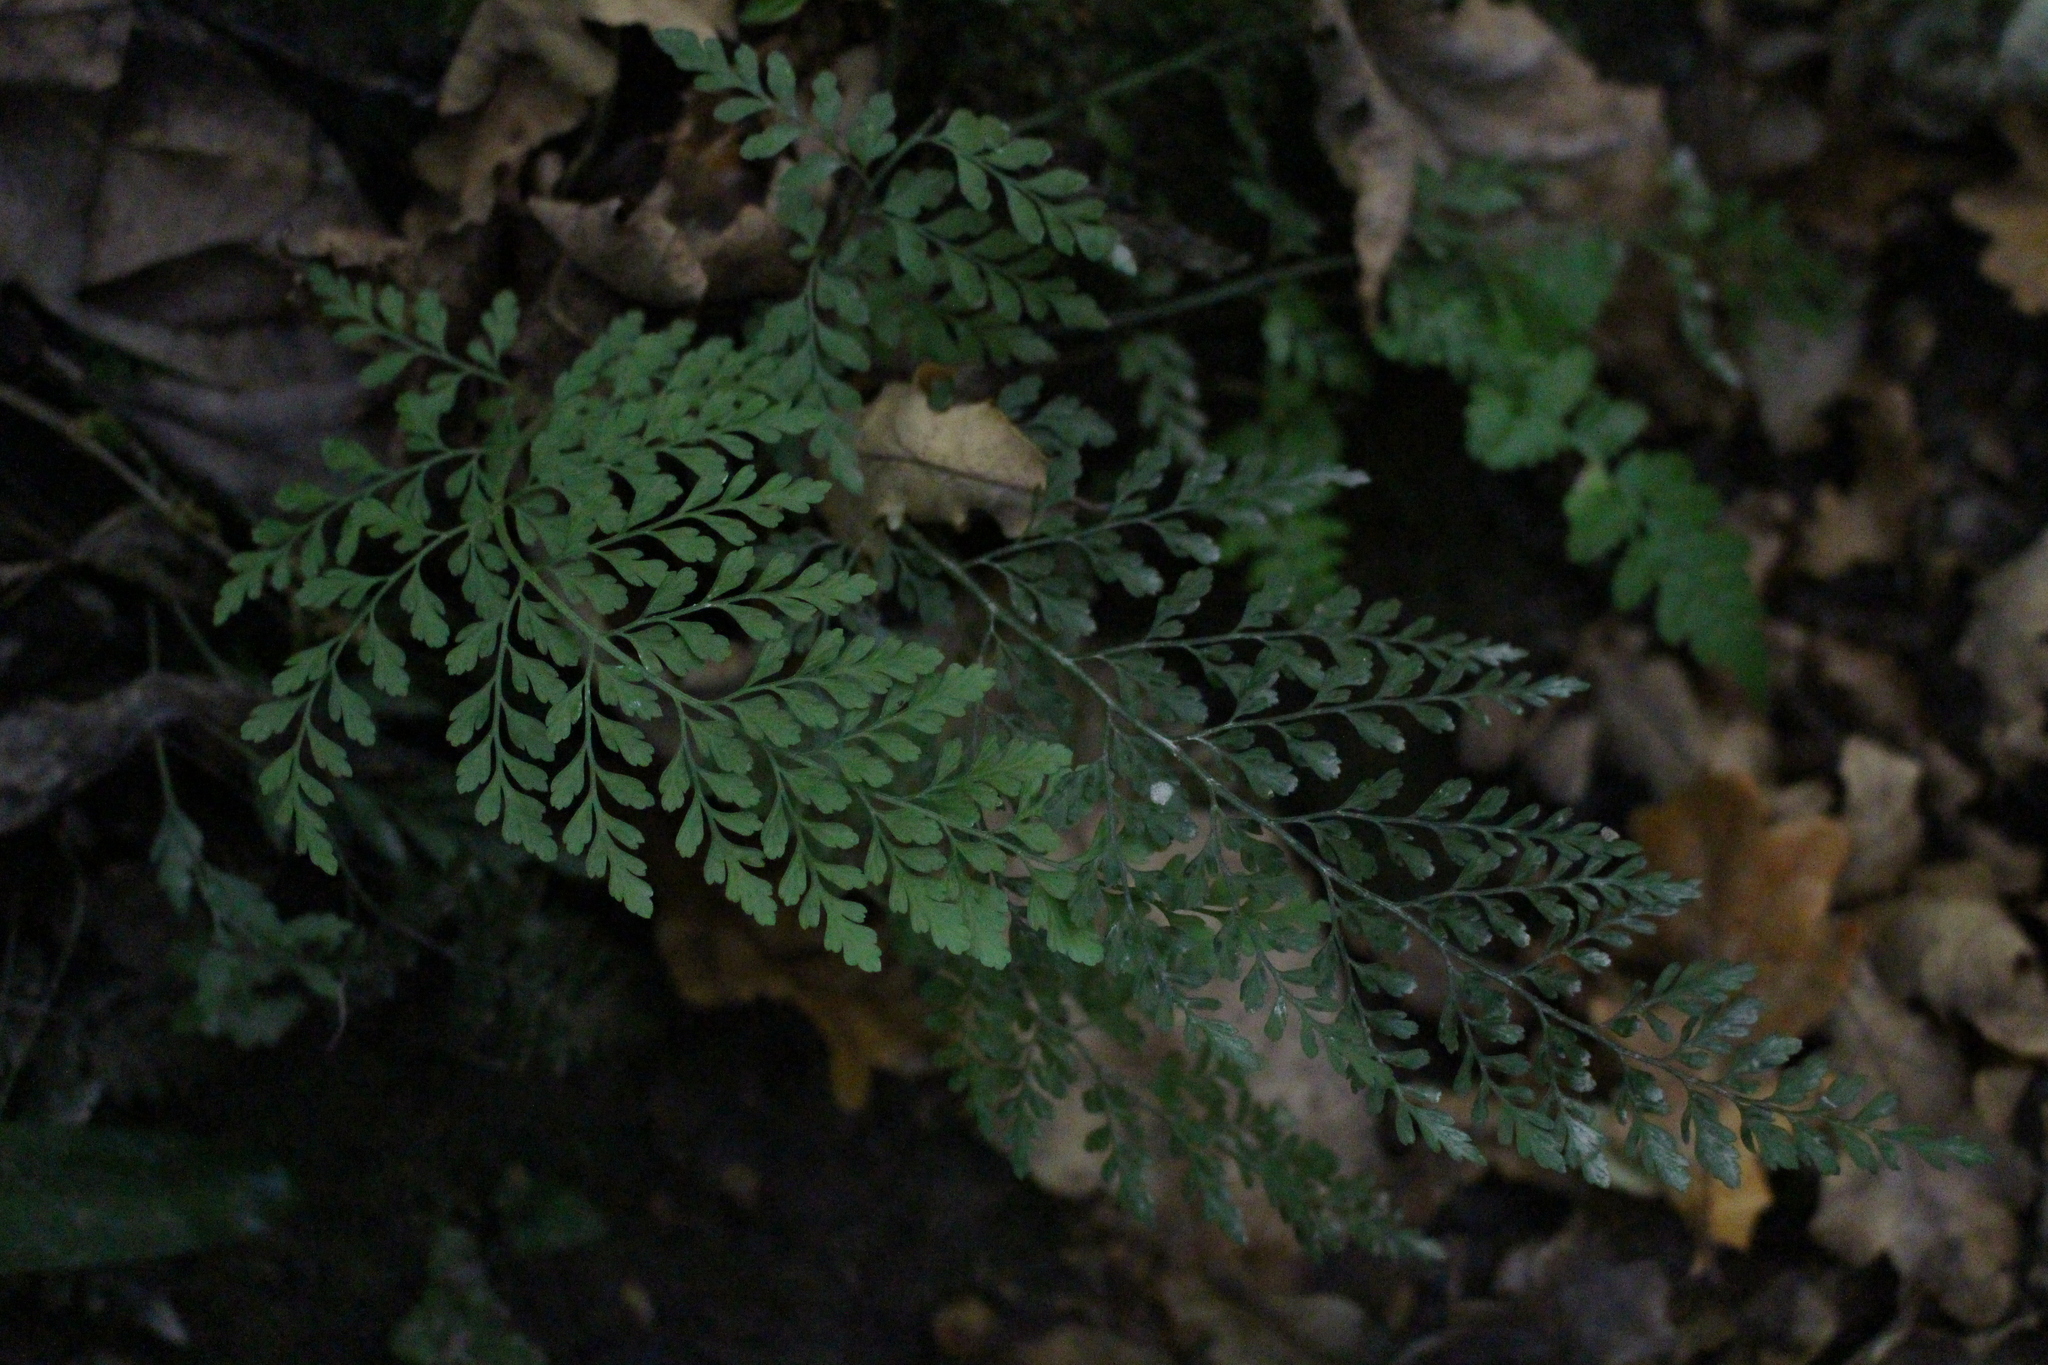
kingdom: Plantae
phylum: Tracheophyta
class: Polypodiopsida
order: Polypodiales
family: Aspleniaceae
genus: Asplenium
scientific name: Asplenium hookerianum
